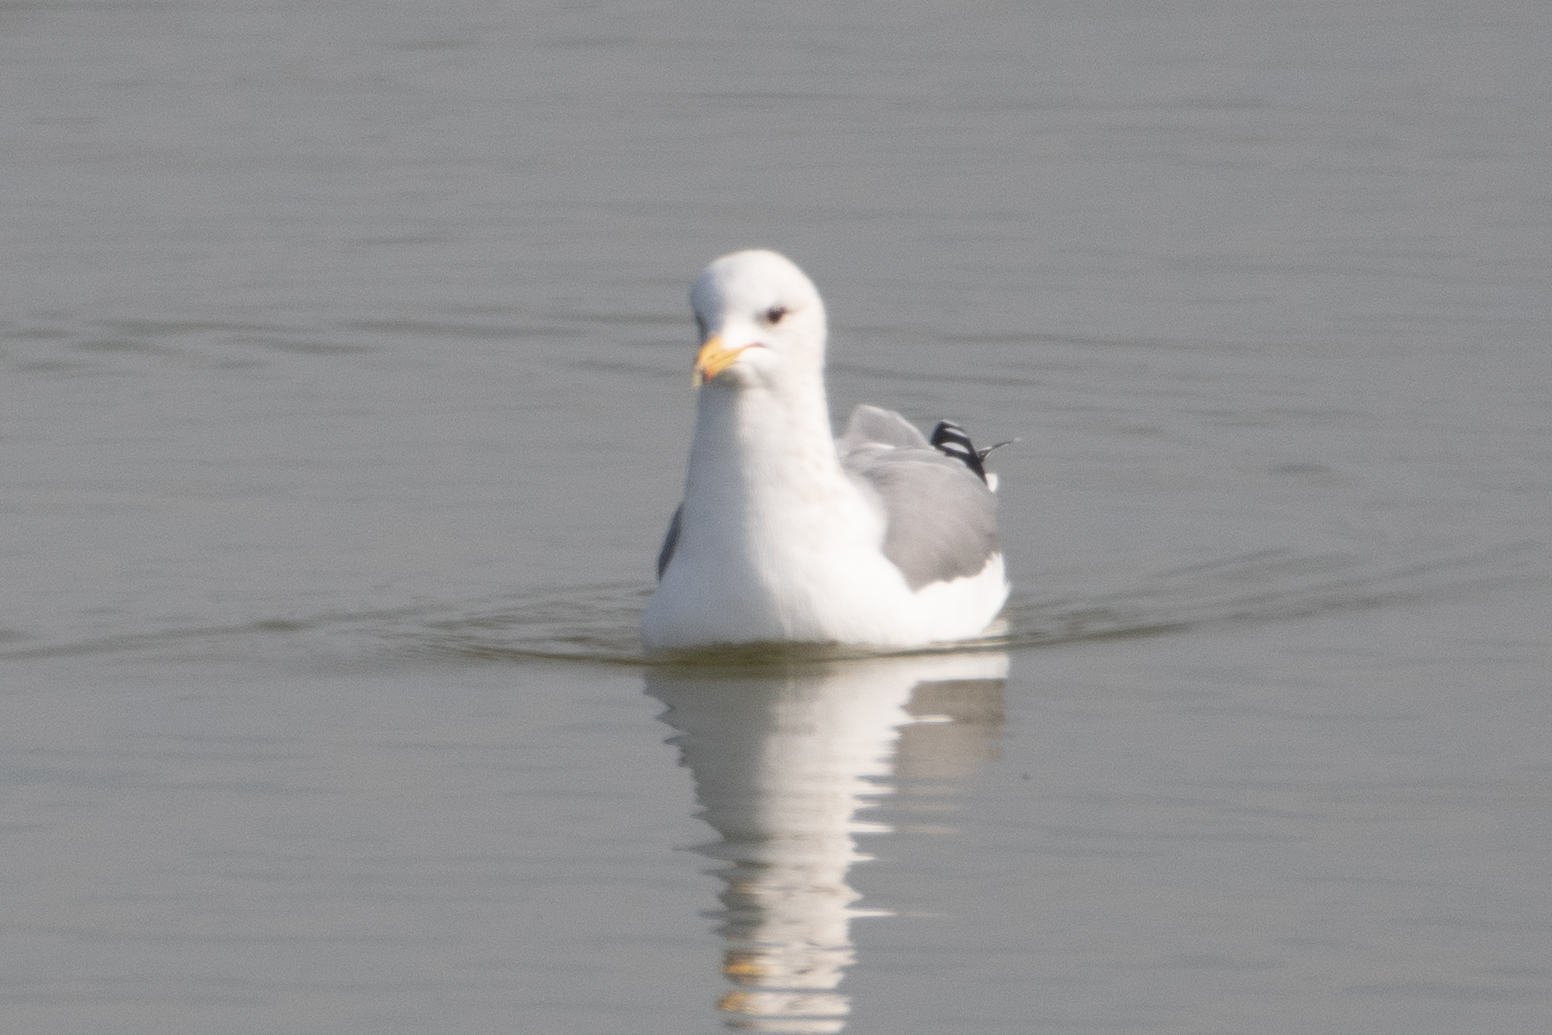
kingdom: Animalia
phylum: Chordata
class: Aves
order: Charadriiformes
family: Laridae
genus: Larus
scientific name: Larus californicus
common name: California gull
